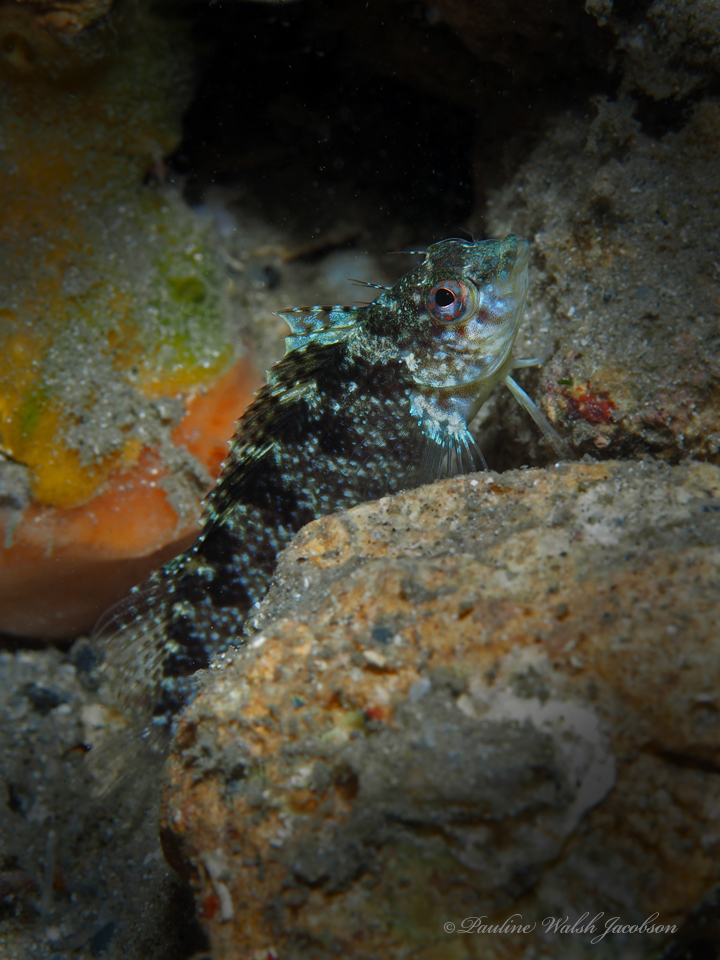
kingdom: Animalia
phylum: Chordata
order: Perciformes
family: Labrisomidae
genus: Malacoctenus
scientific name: Malacoctenus macropus
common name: Rosy blenny
